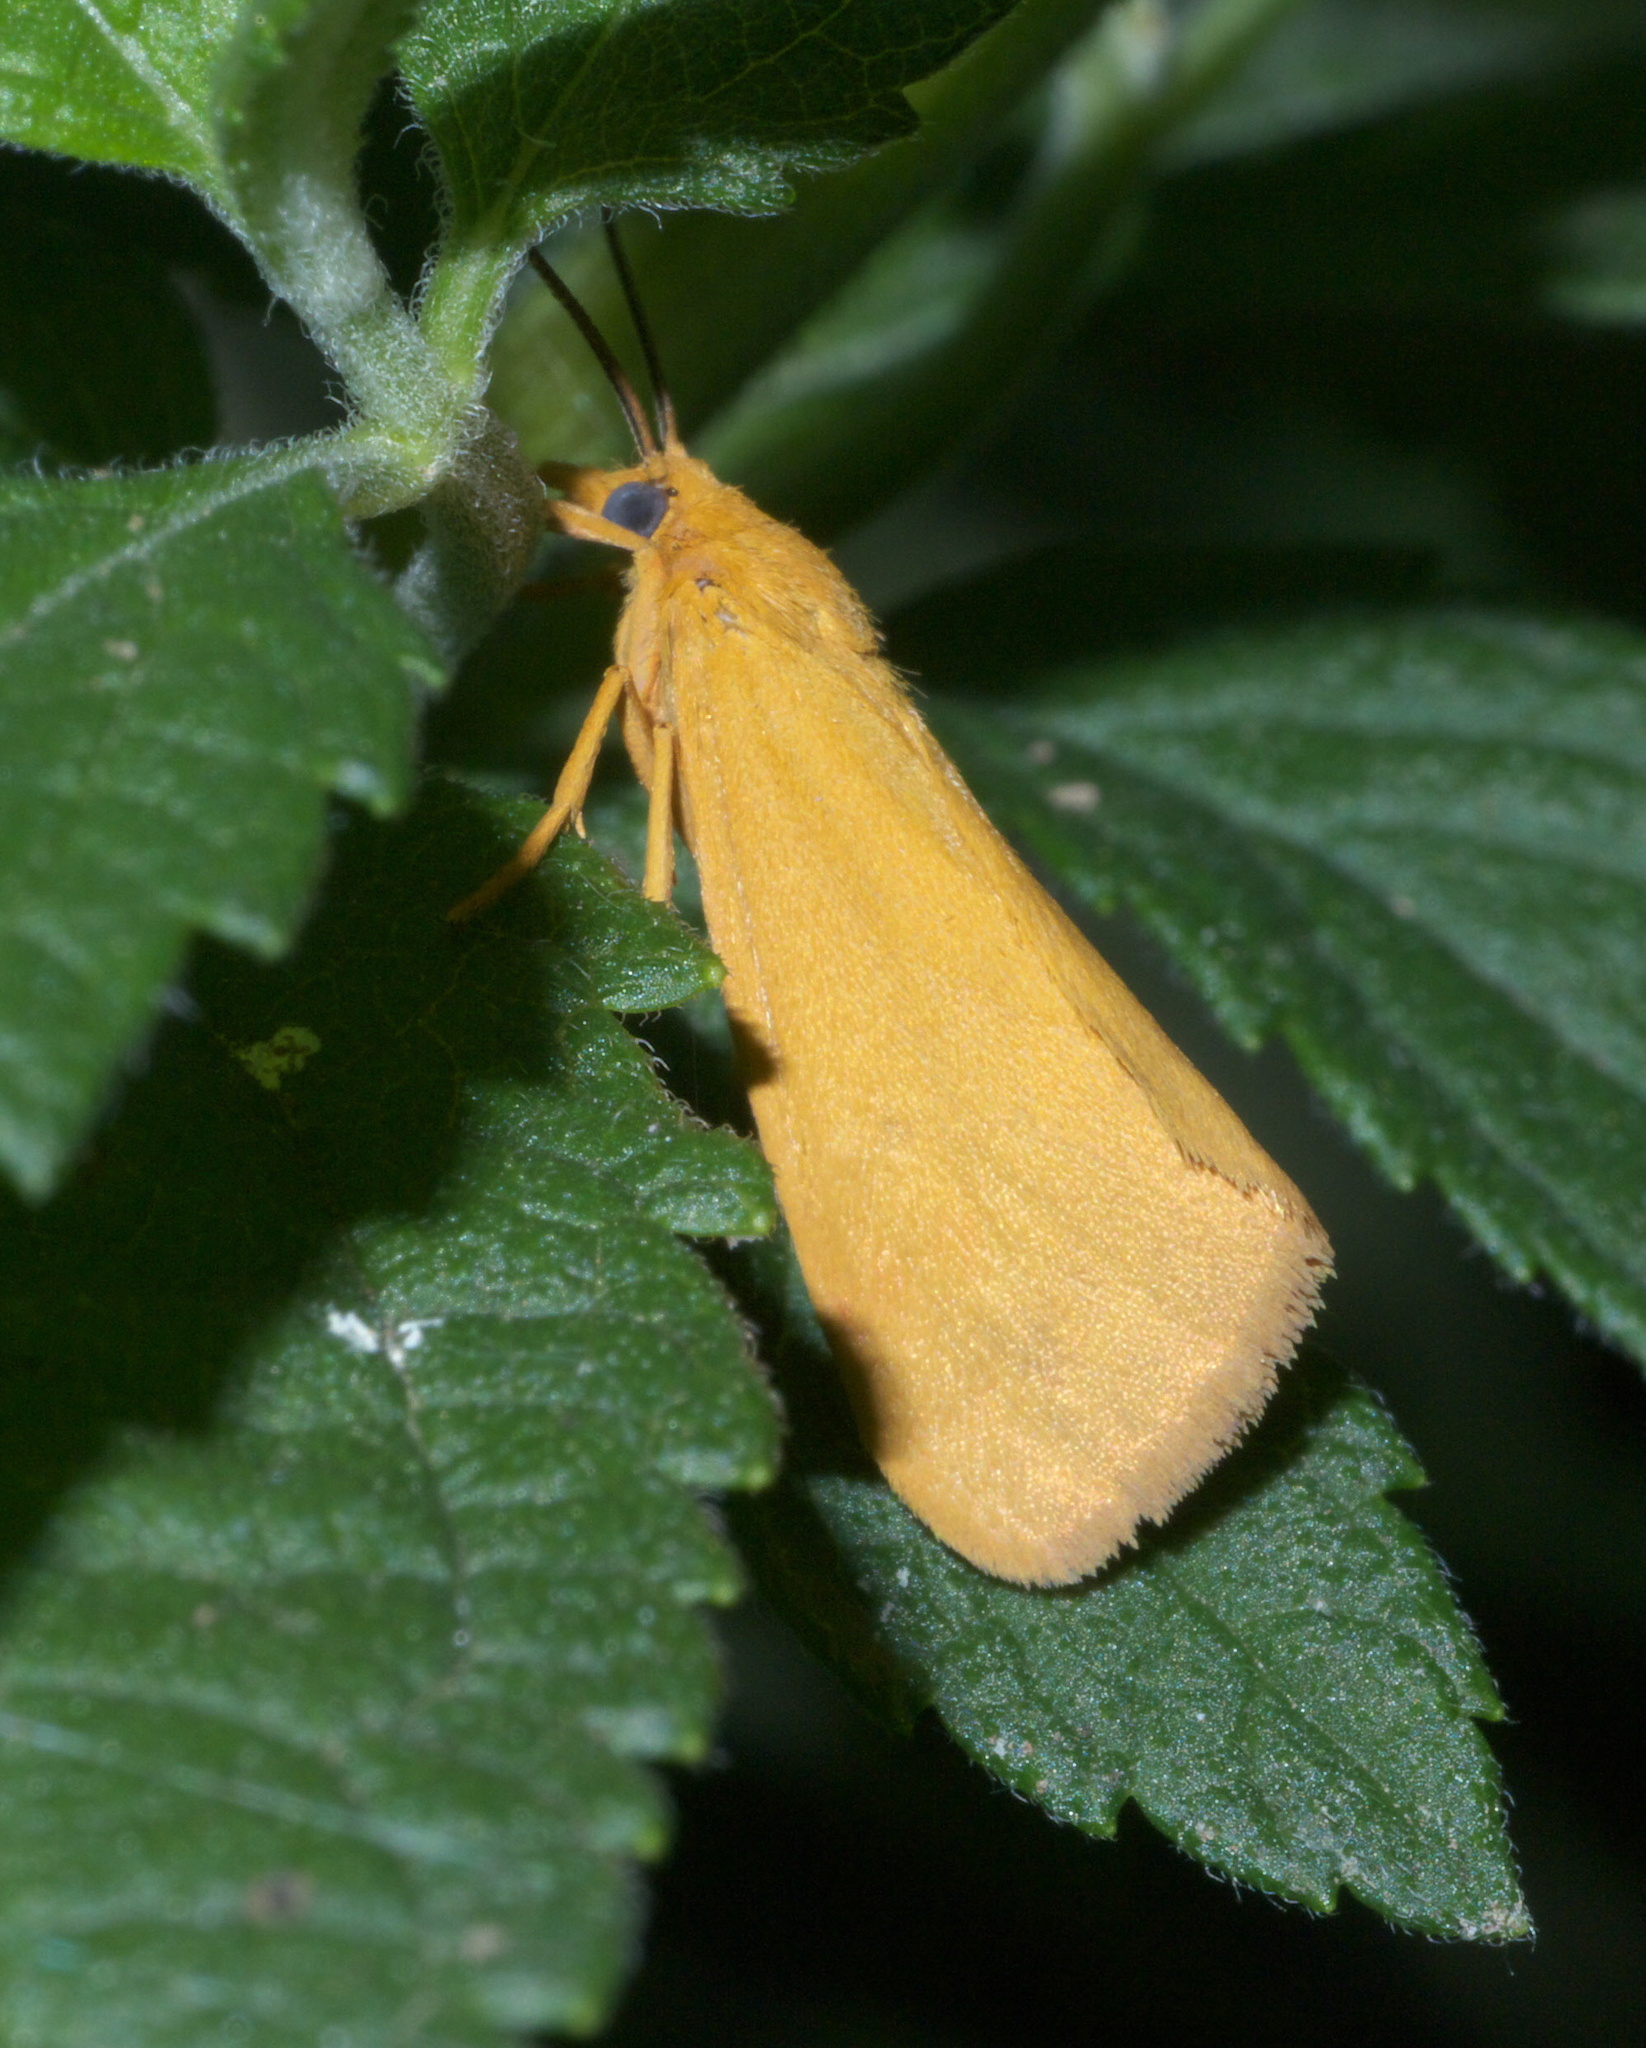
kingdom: Animalia
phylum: Arthropoda
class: Insecta
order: Lepidoptera
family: Erebidae
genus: Virbia
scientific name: Virbia aurantiaca
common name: Orange virbia moth
